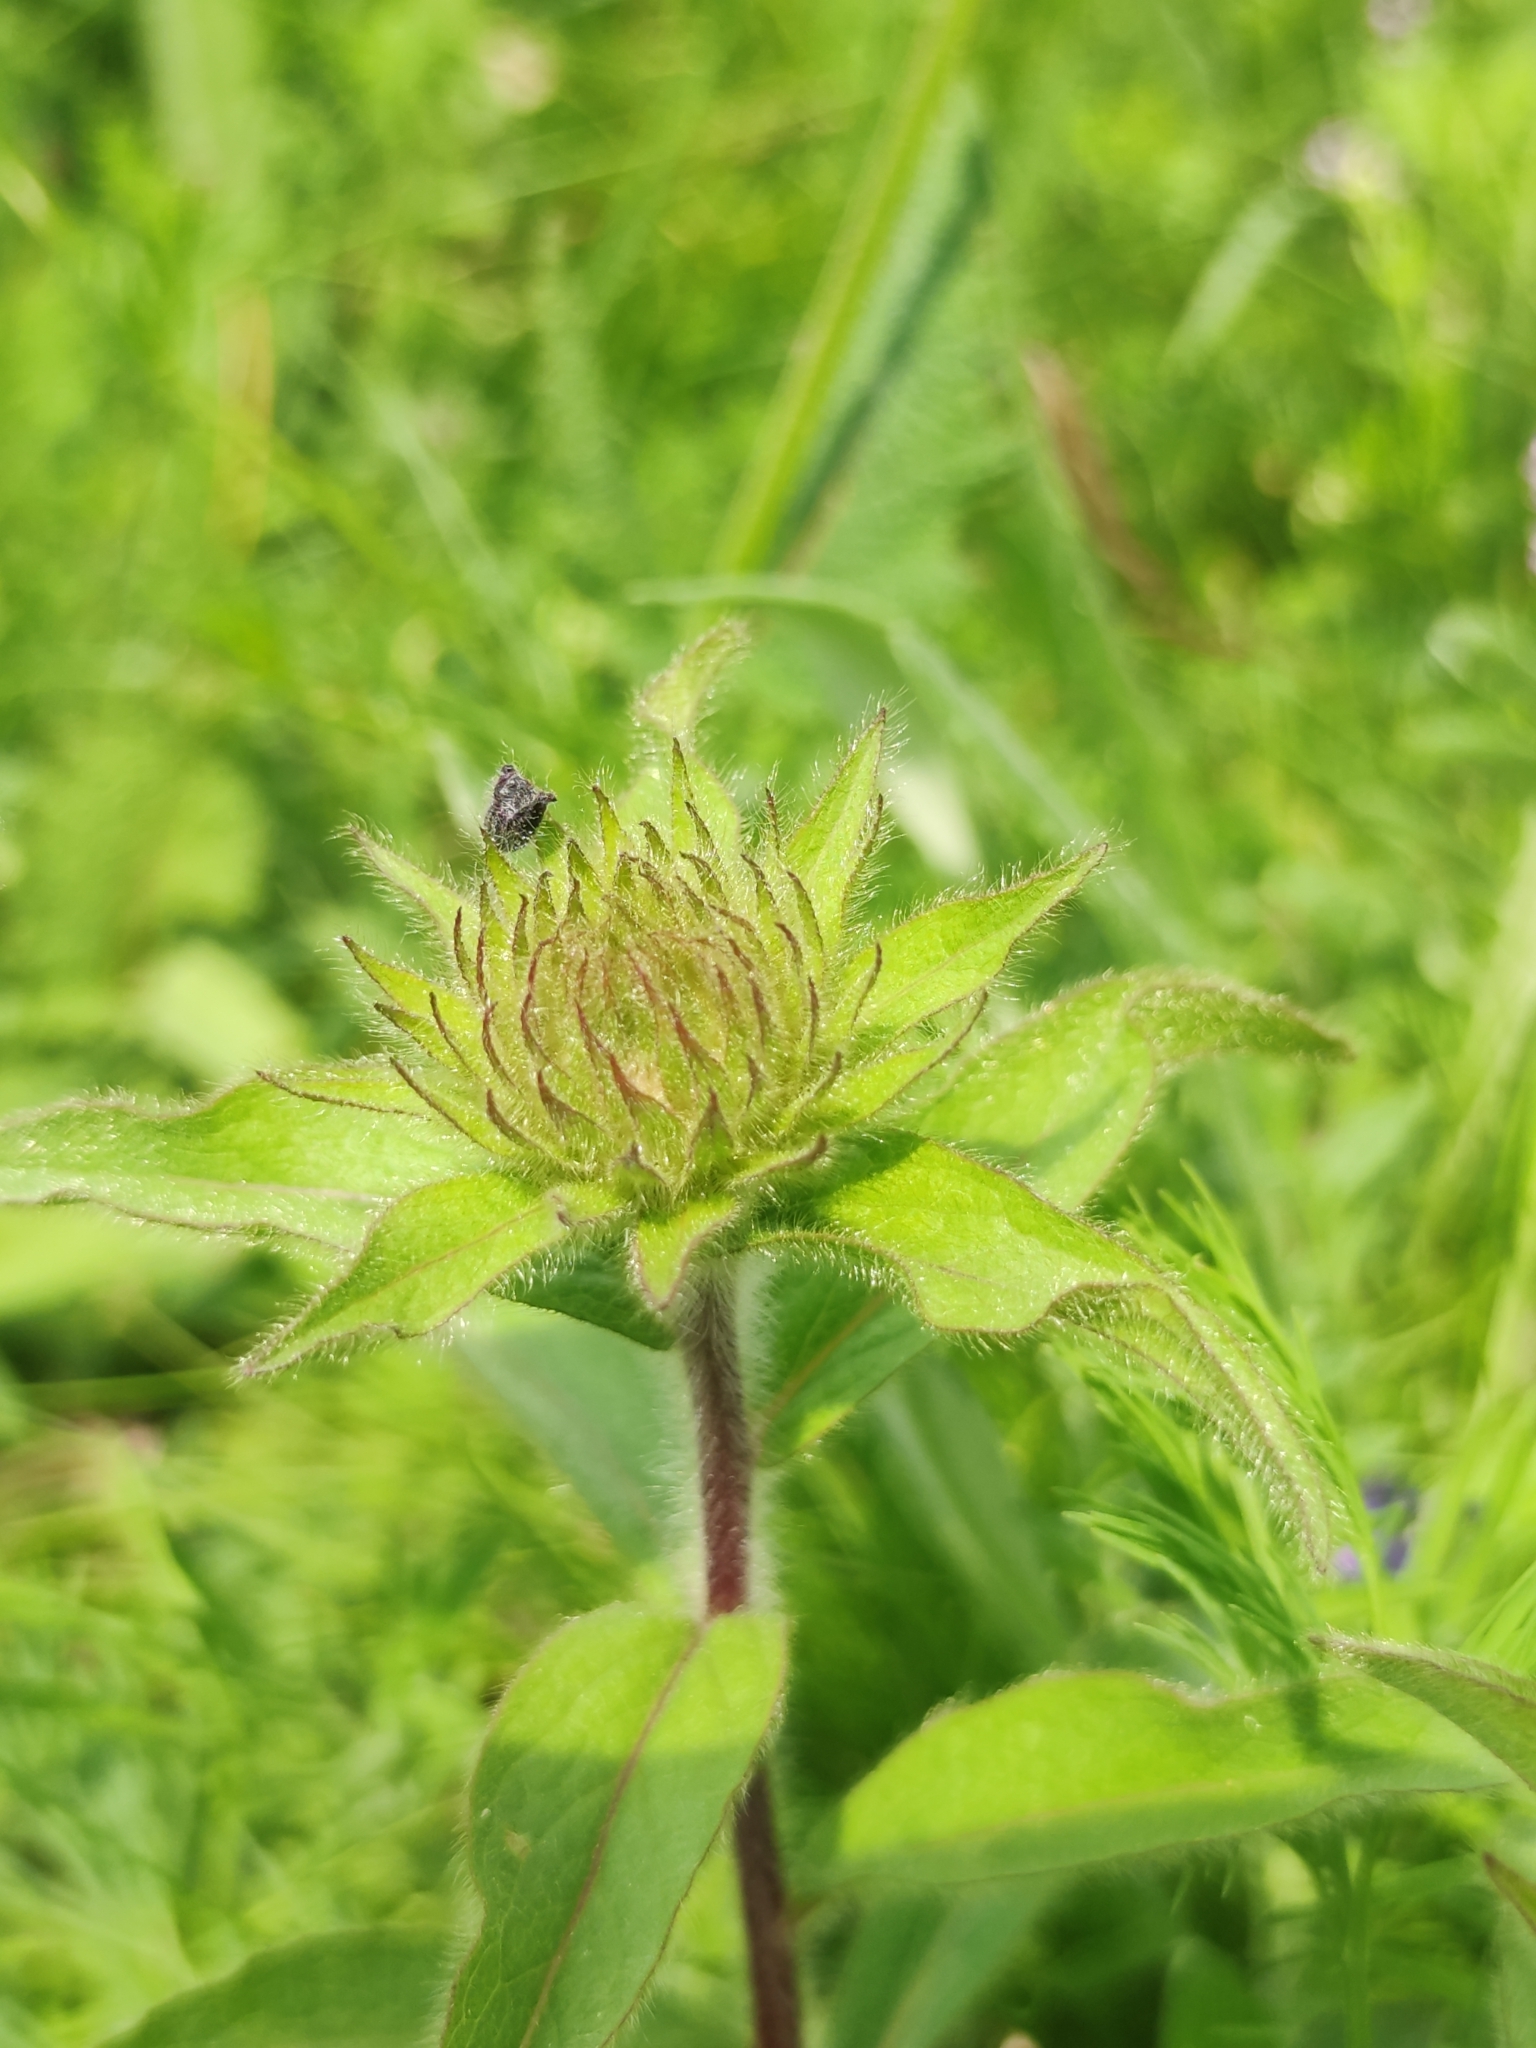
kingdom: Plantae
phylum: Tracheophyta
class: Magnoliopsida
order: Asterales
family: Asteraceae
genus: Pentanema
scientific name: Pentanema hirtum
